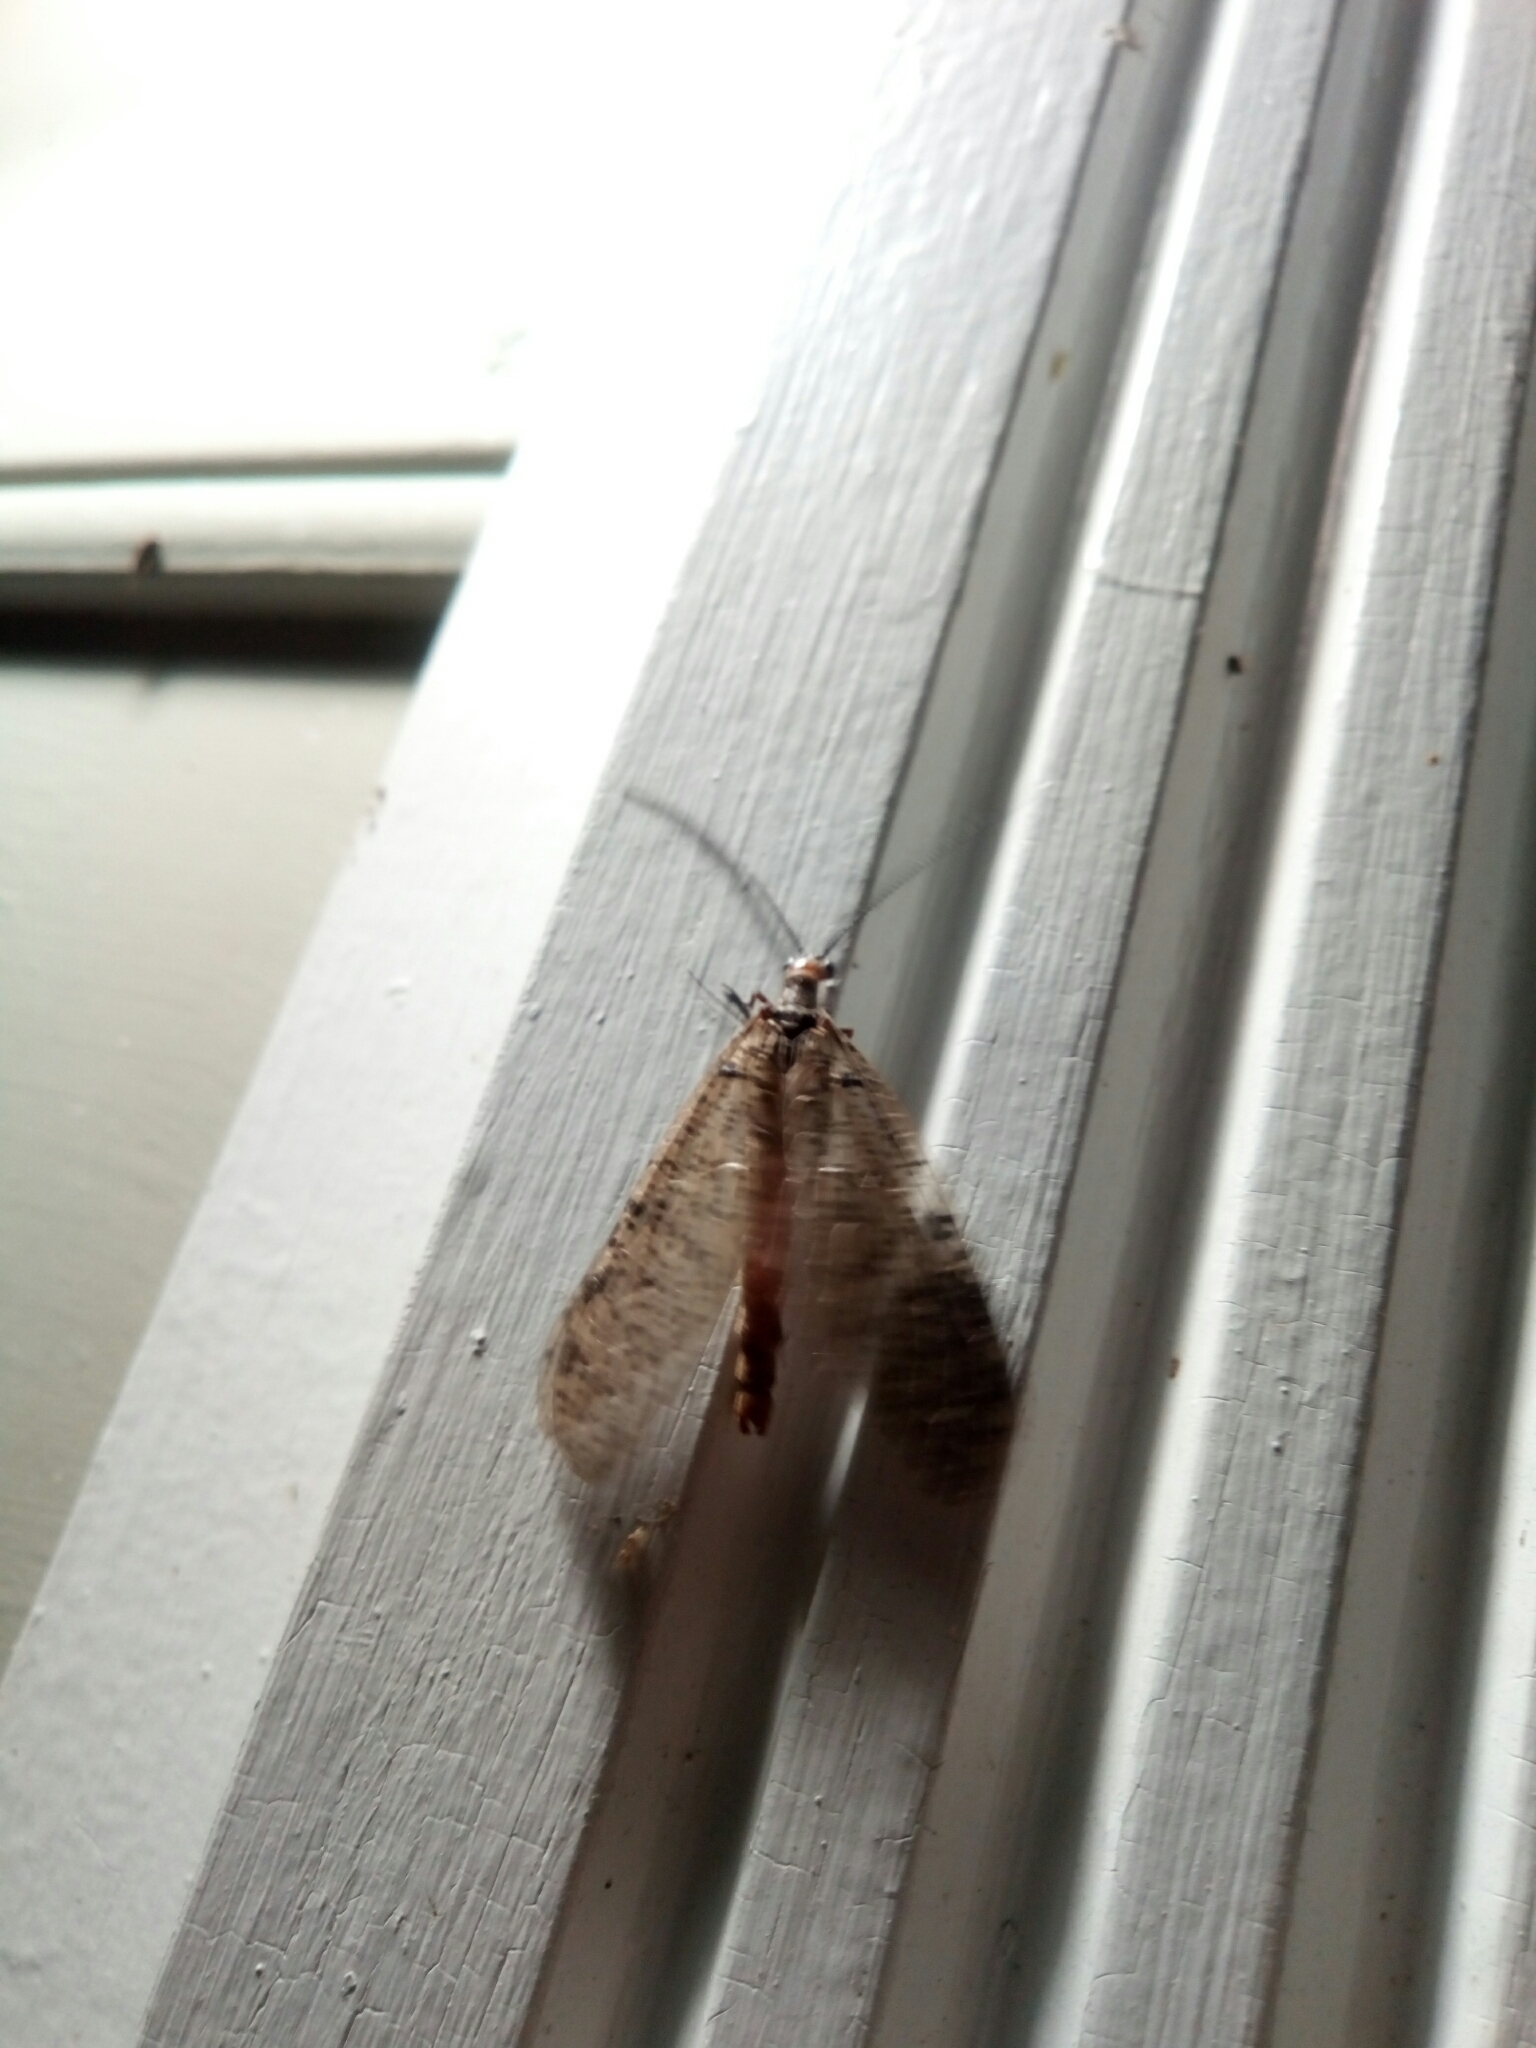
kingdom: Animalia
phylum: Arthropoda
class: Insecta
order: Megaloptera
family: Corydalidae
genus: Neohermes
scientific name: Neohermes concolor
